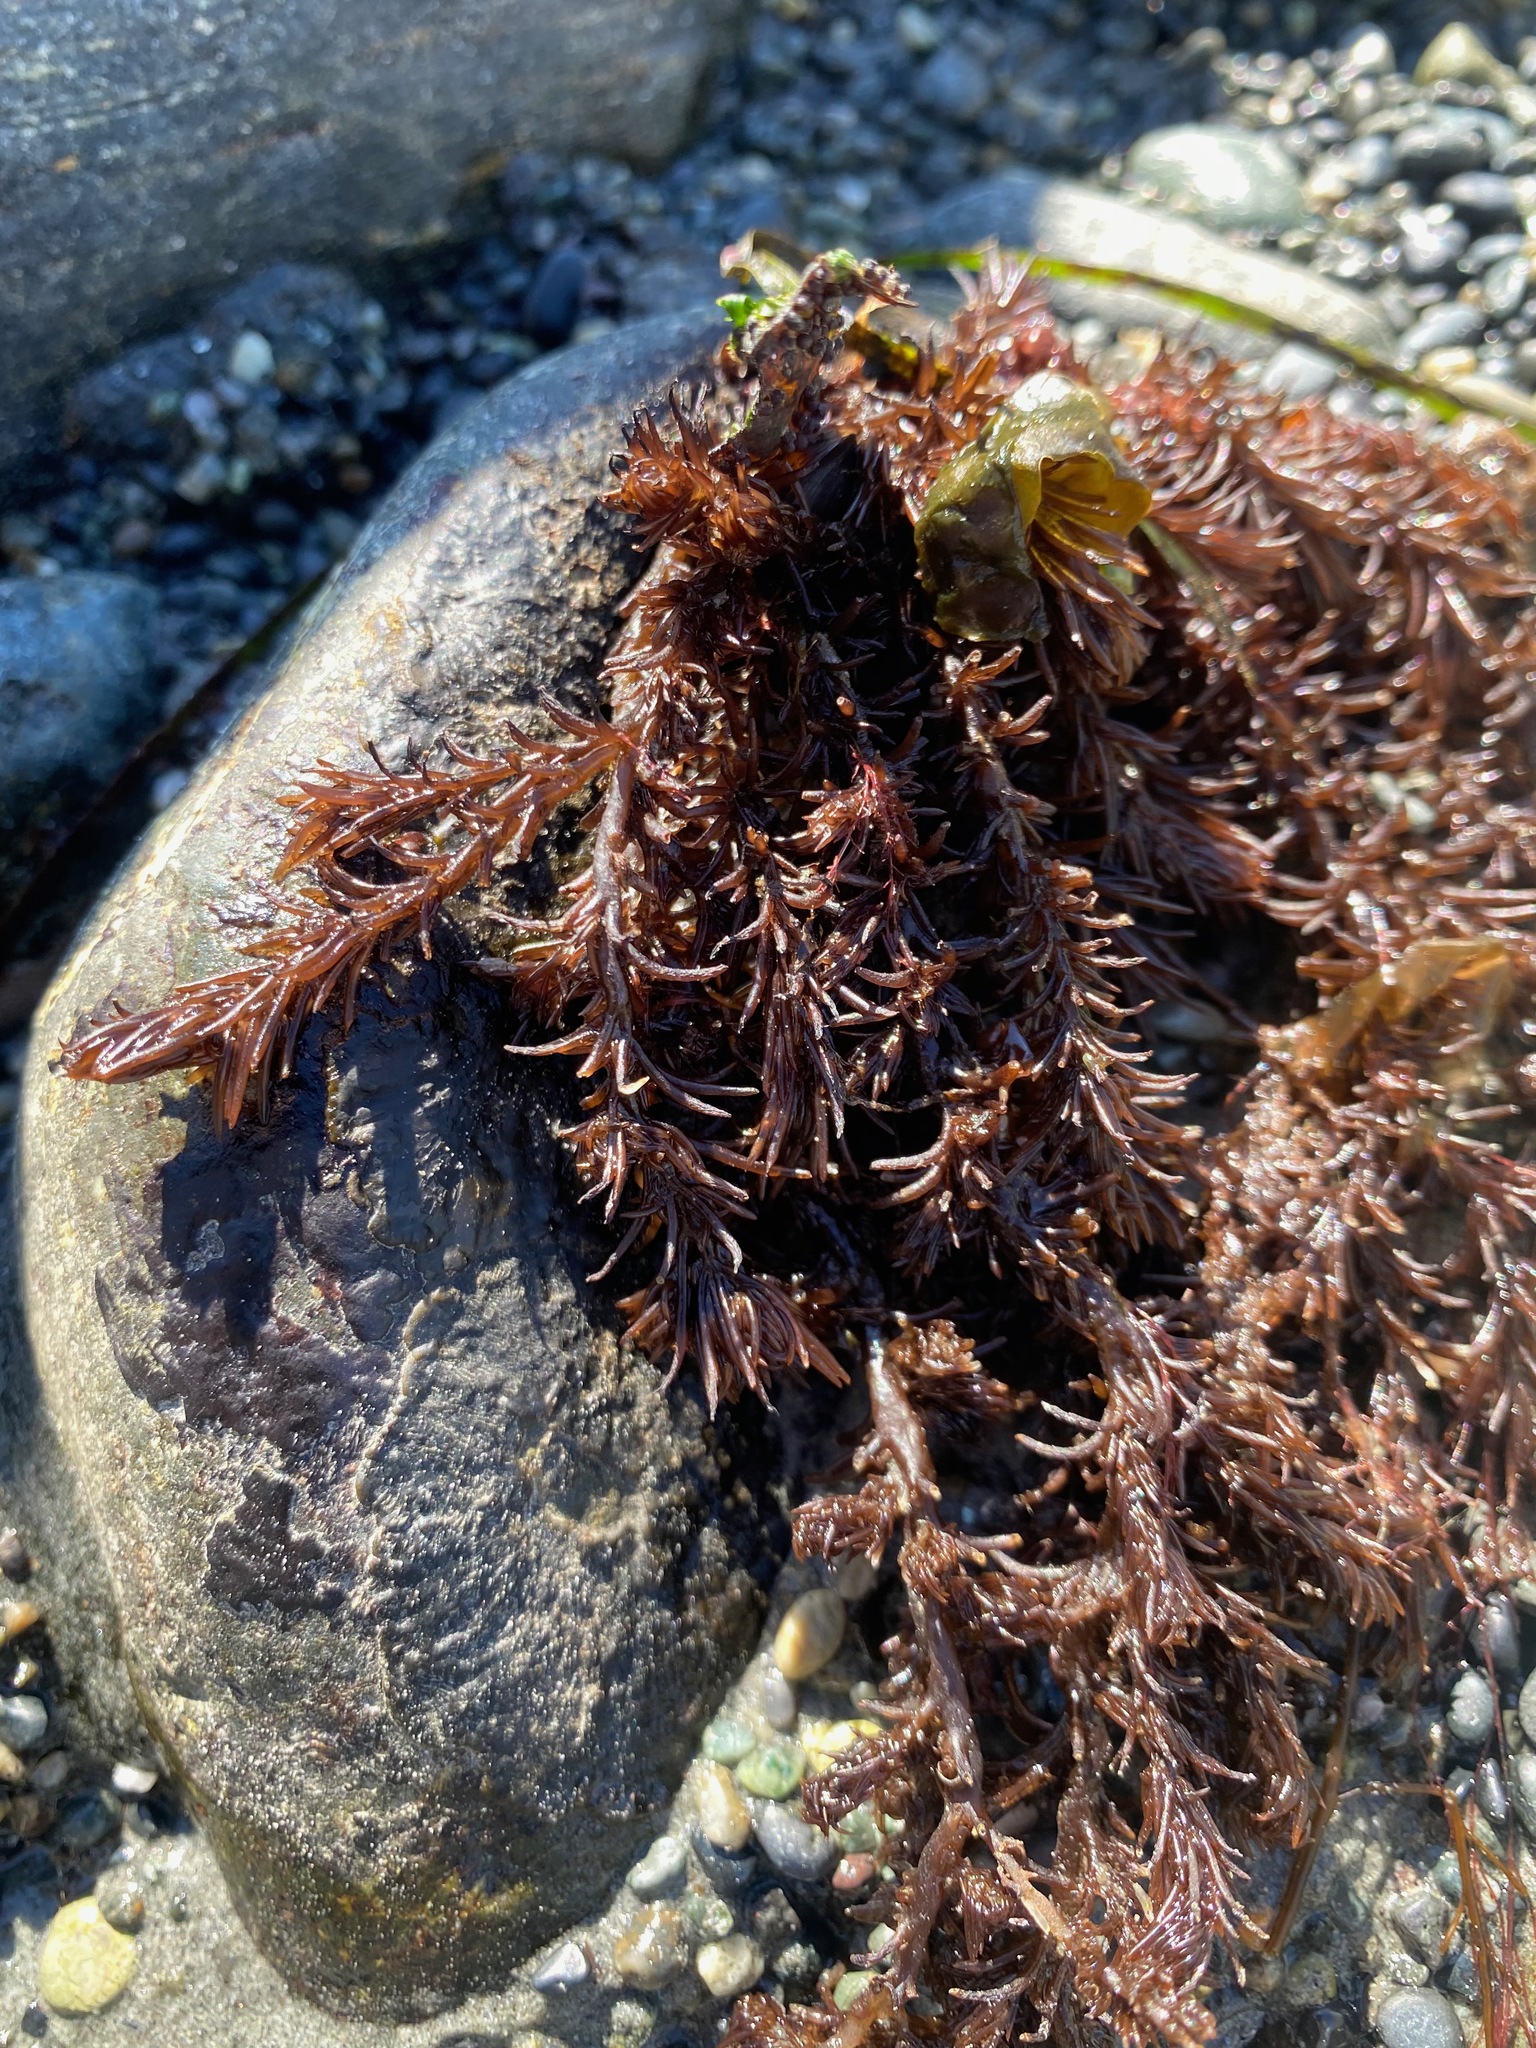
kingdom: Plantae
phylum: Rhodophyta
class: Florideophyceae
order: Ceramiales
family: Rhodomelaceae
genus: Neorhodomela
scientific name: Neorhodomela larix
